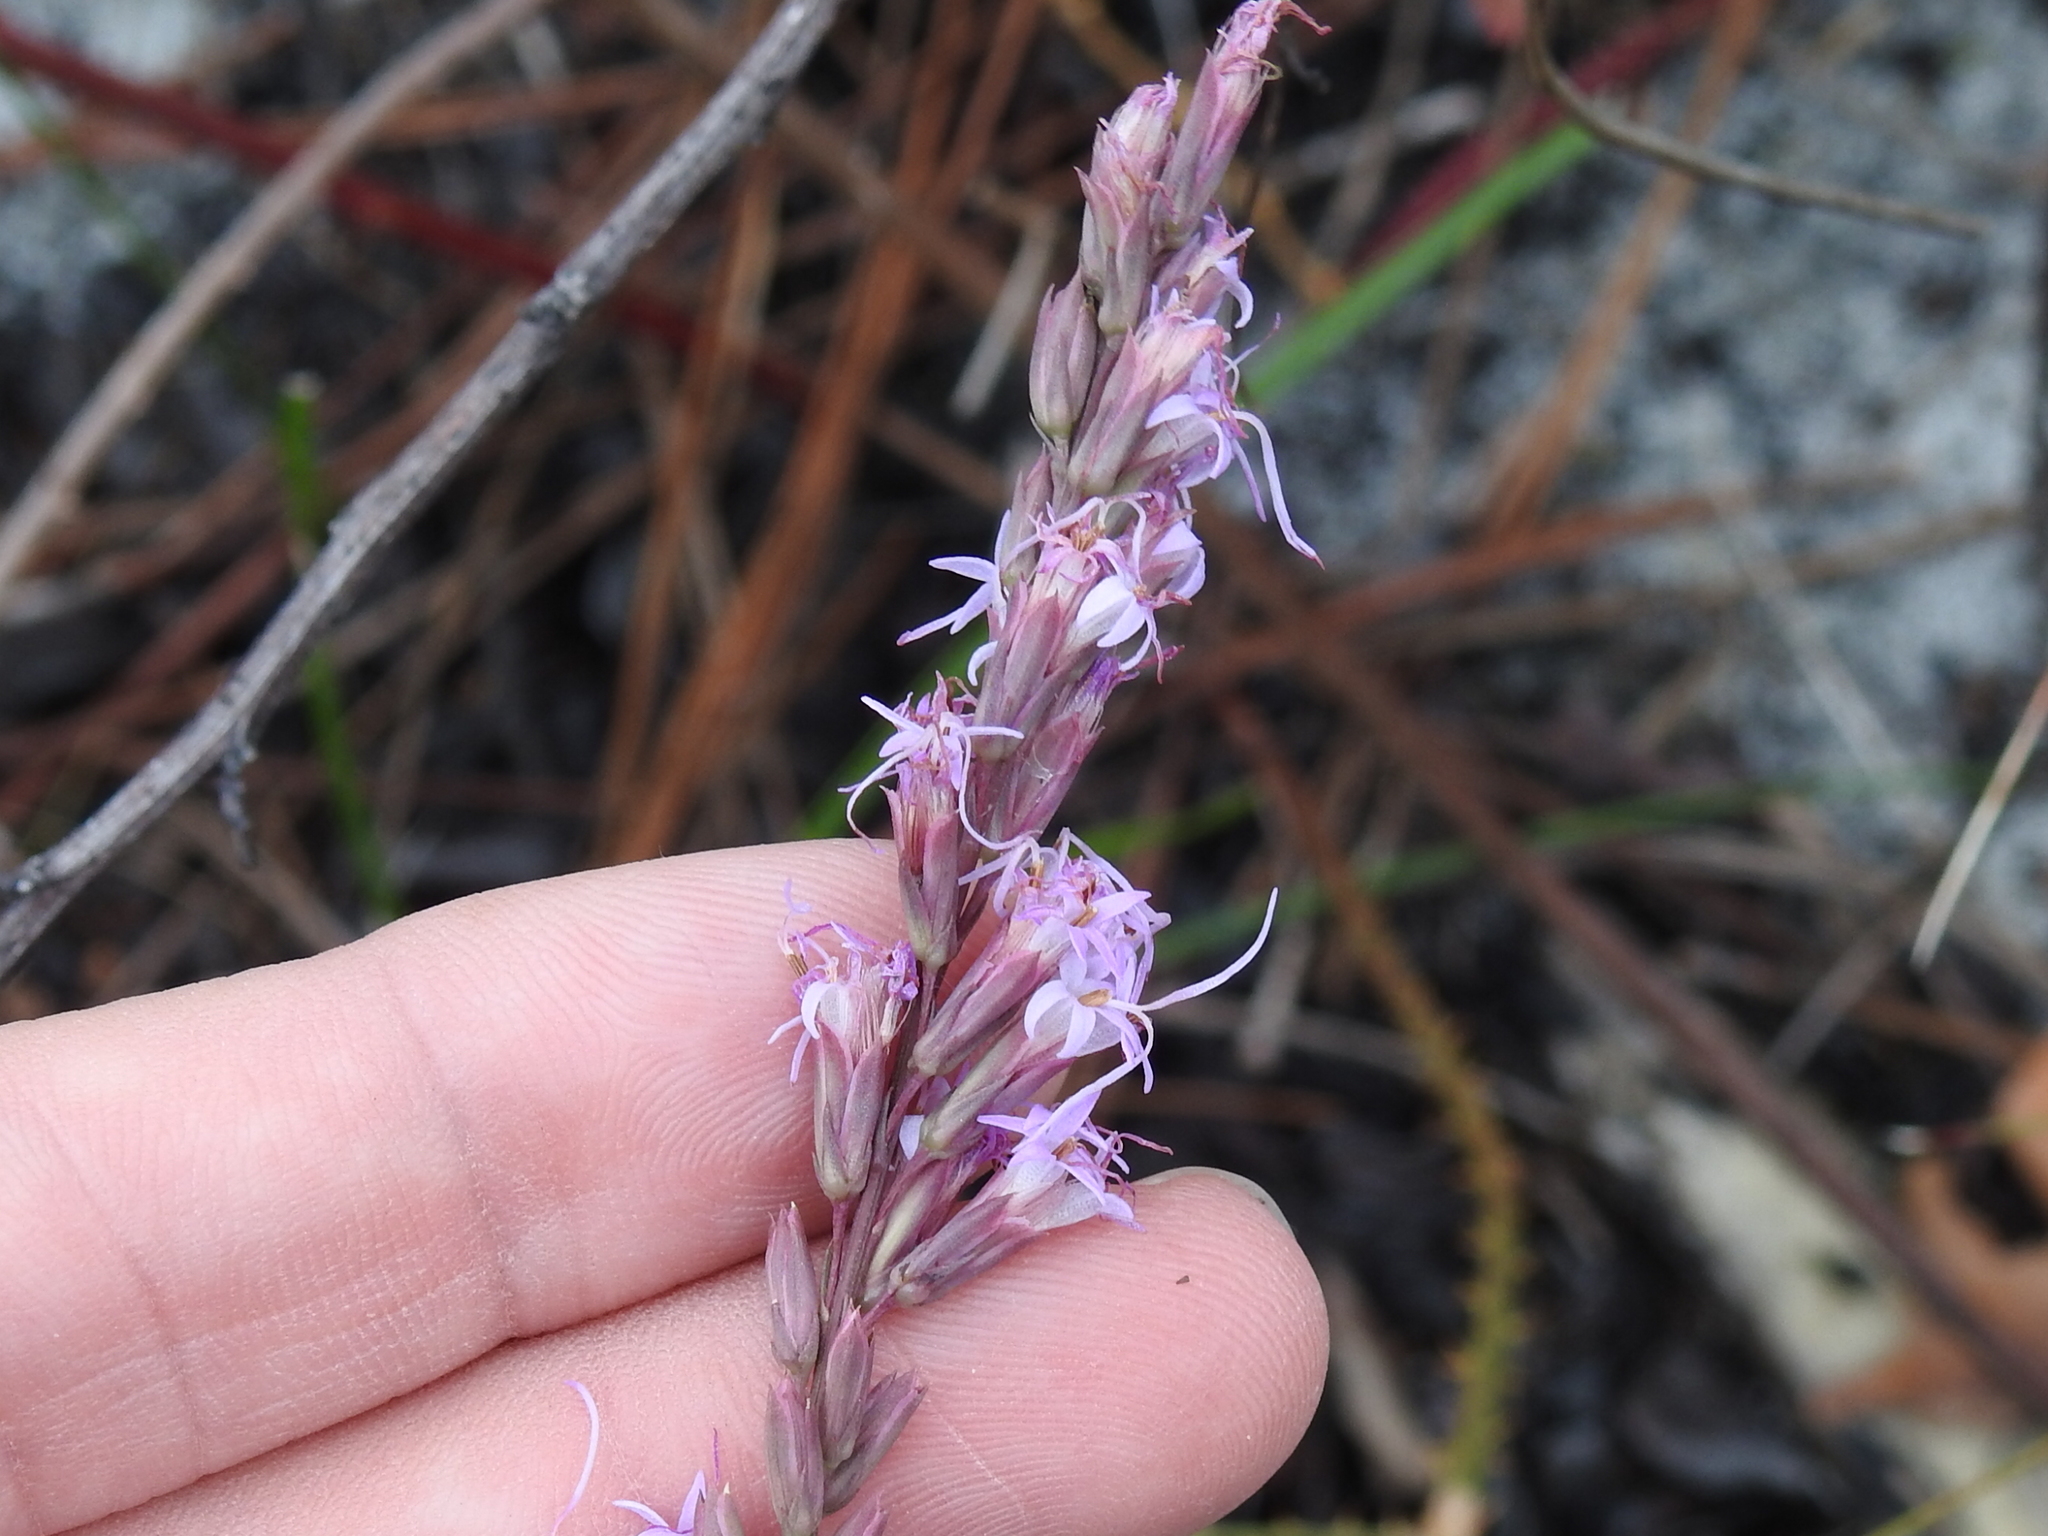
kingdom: Plantae
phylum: Tracheophyta
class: Magnoliopsida
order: Asterales
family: Asteraceae
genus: Liatris
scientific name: Liatris quadriflora
